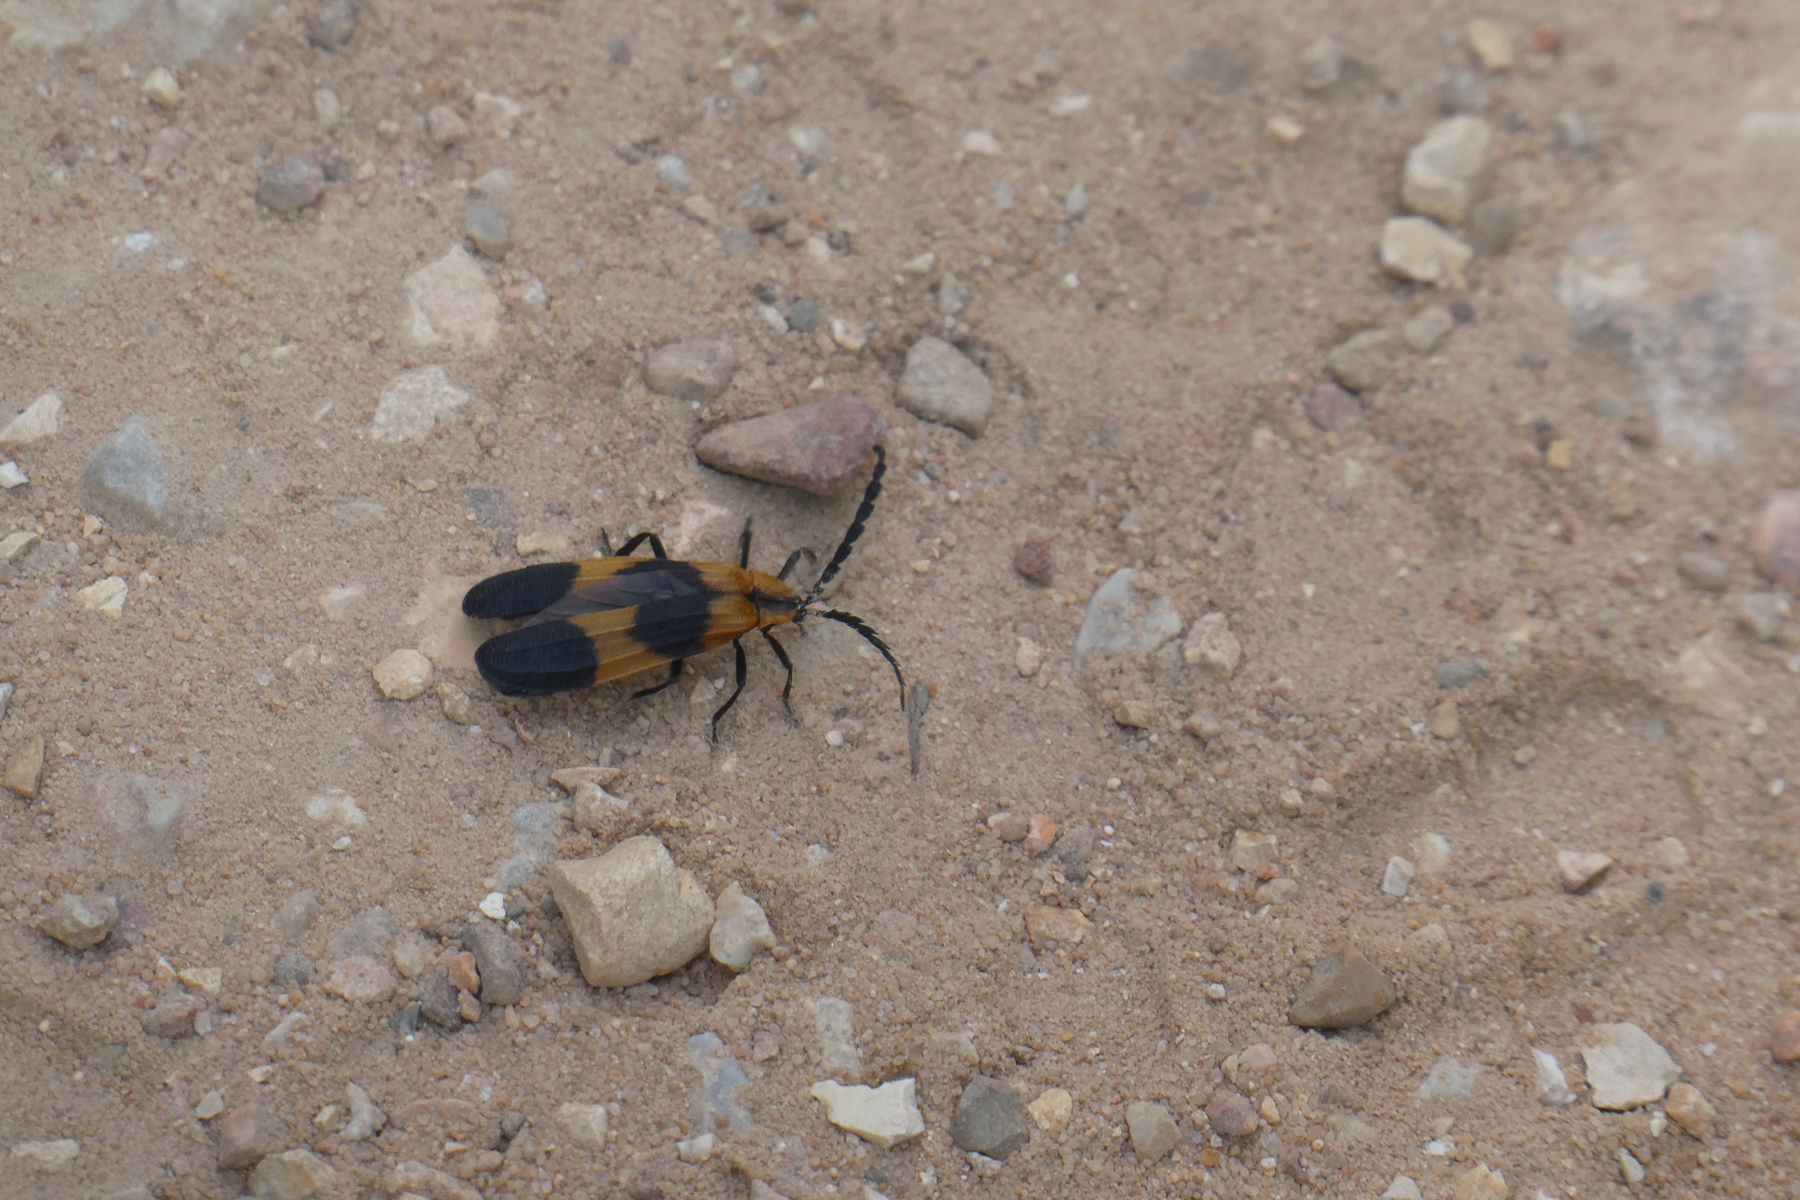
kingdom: Animalia
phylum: Arthropoda
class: Insecta
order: Coleoptera
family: Lycidae
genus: Calopteron
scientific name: Calopteron reticulatum
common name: Banded net-winged beetle
